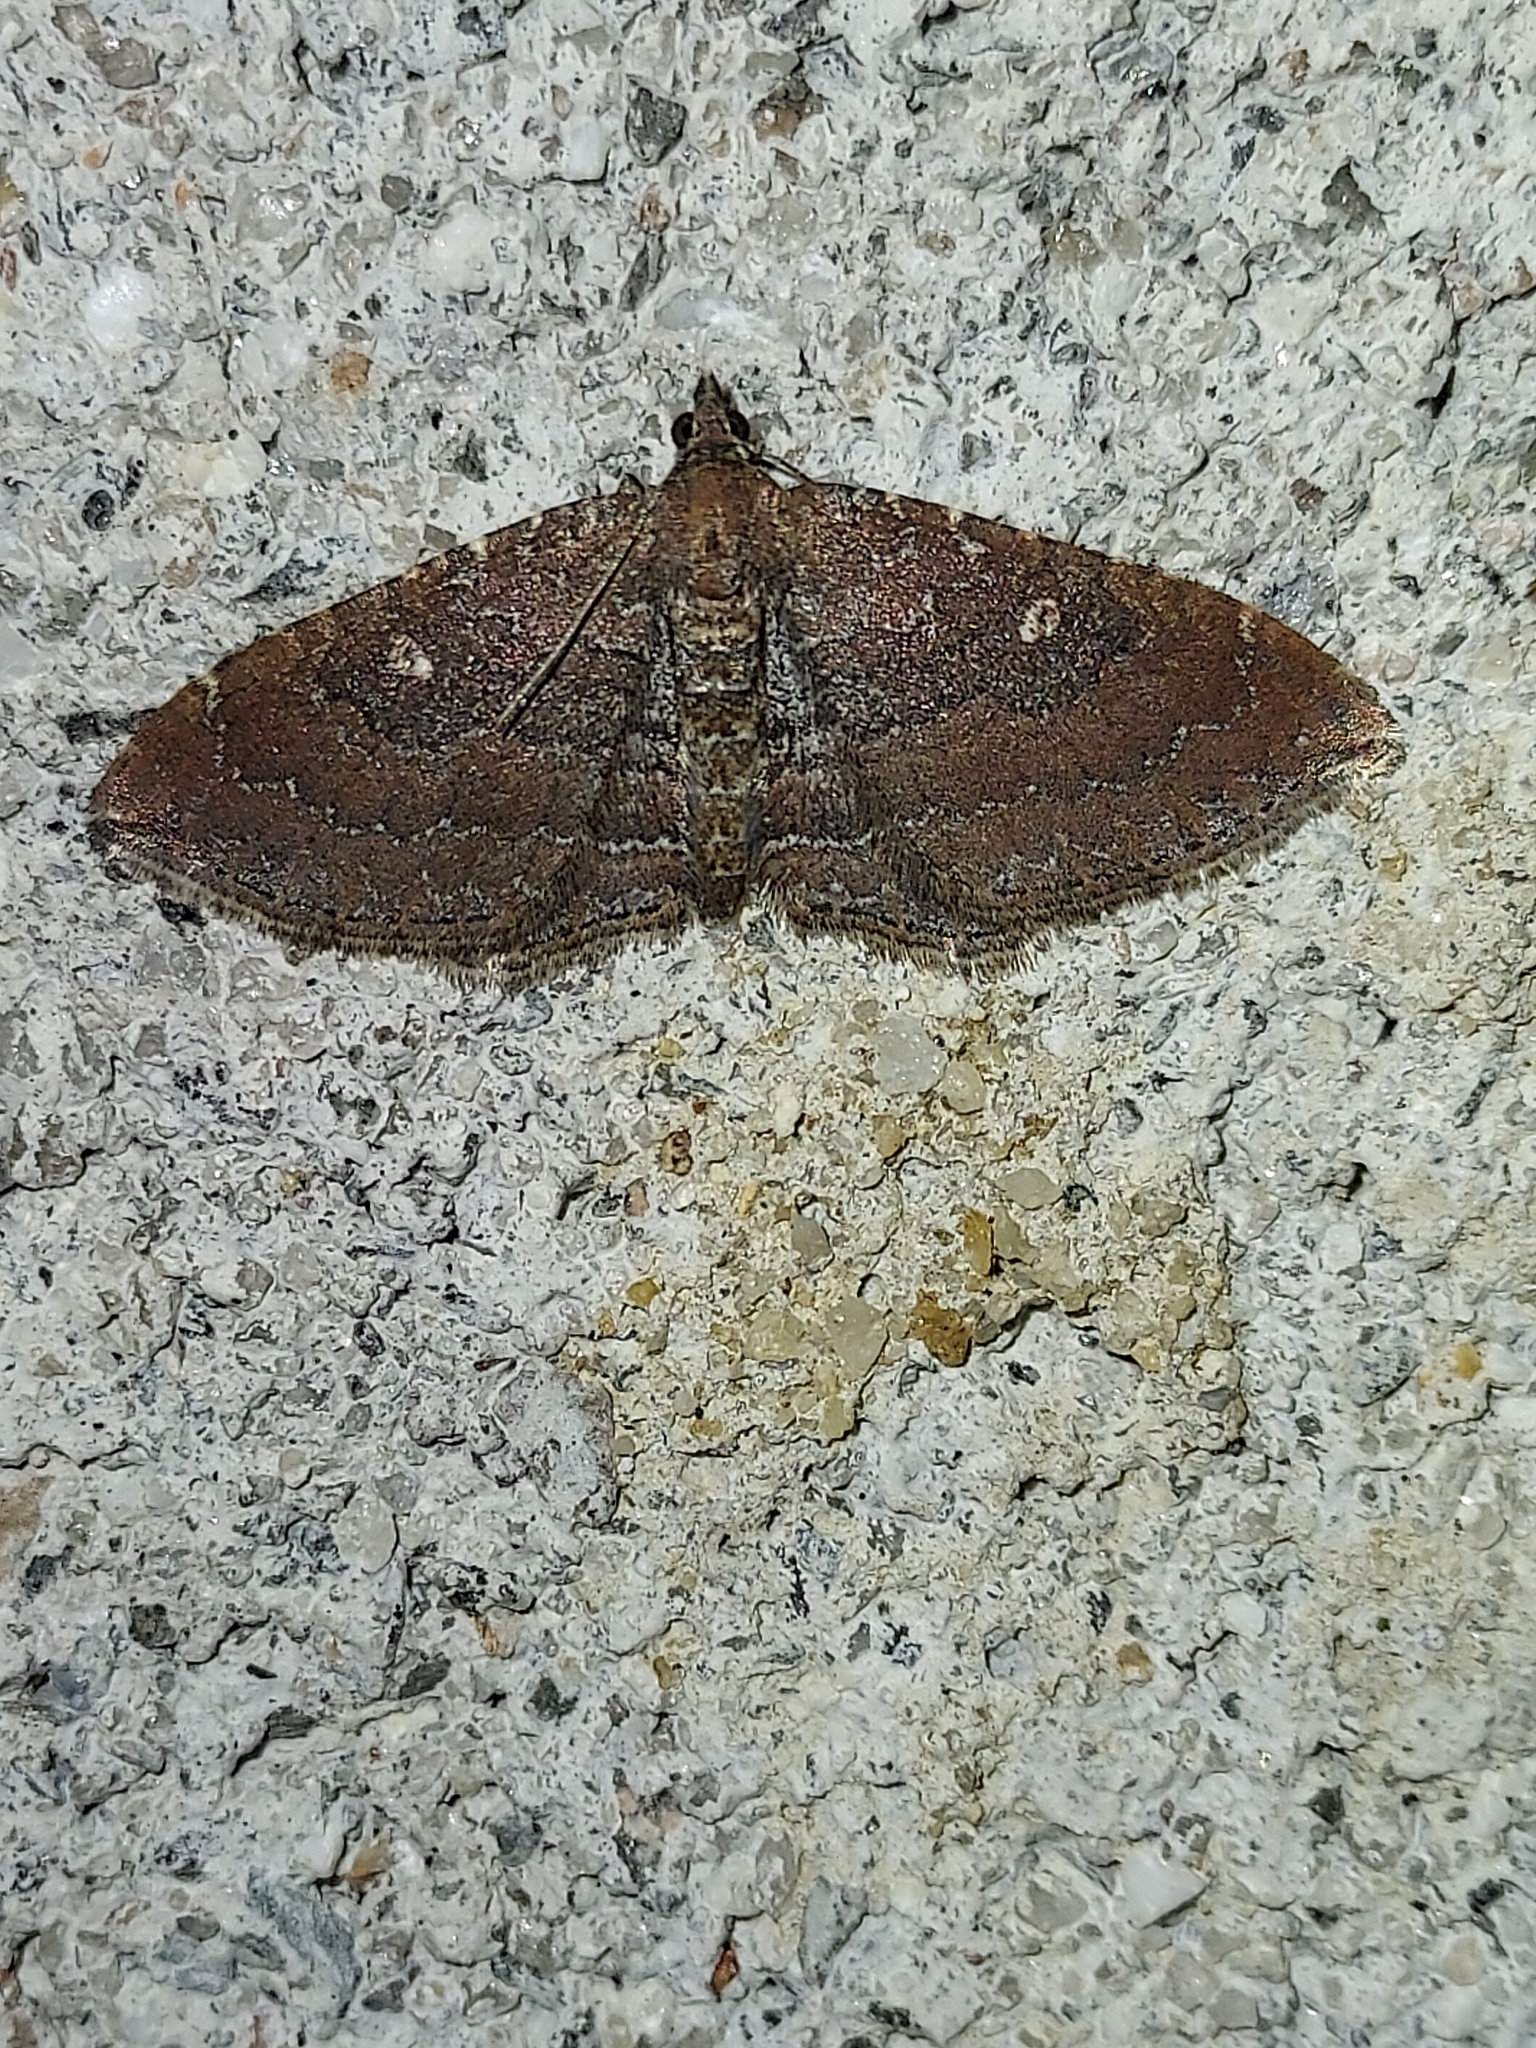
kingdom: Animalia
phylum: Arthropoda
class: Insecta
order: Lepidoptera
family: Geometridae
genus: Orthonama
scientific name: Orthonama obstipata
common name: The gem
